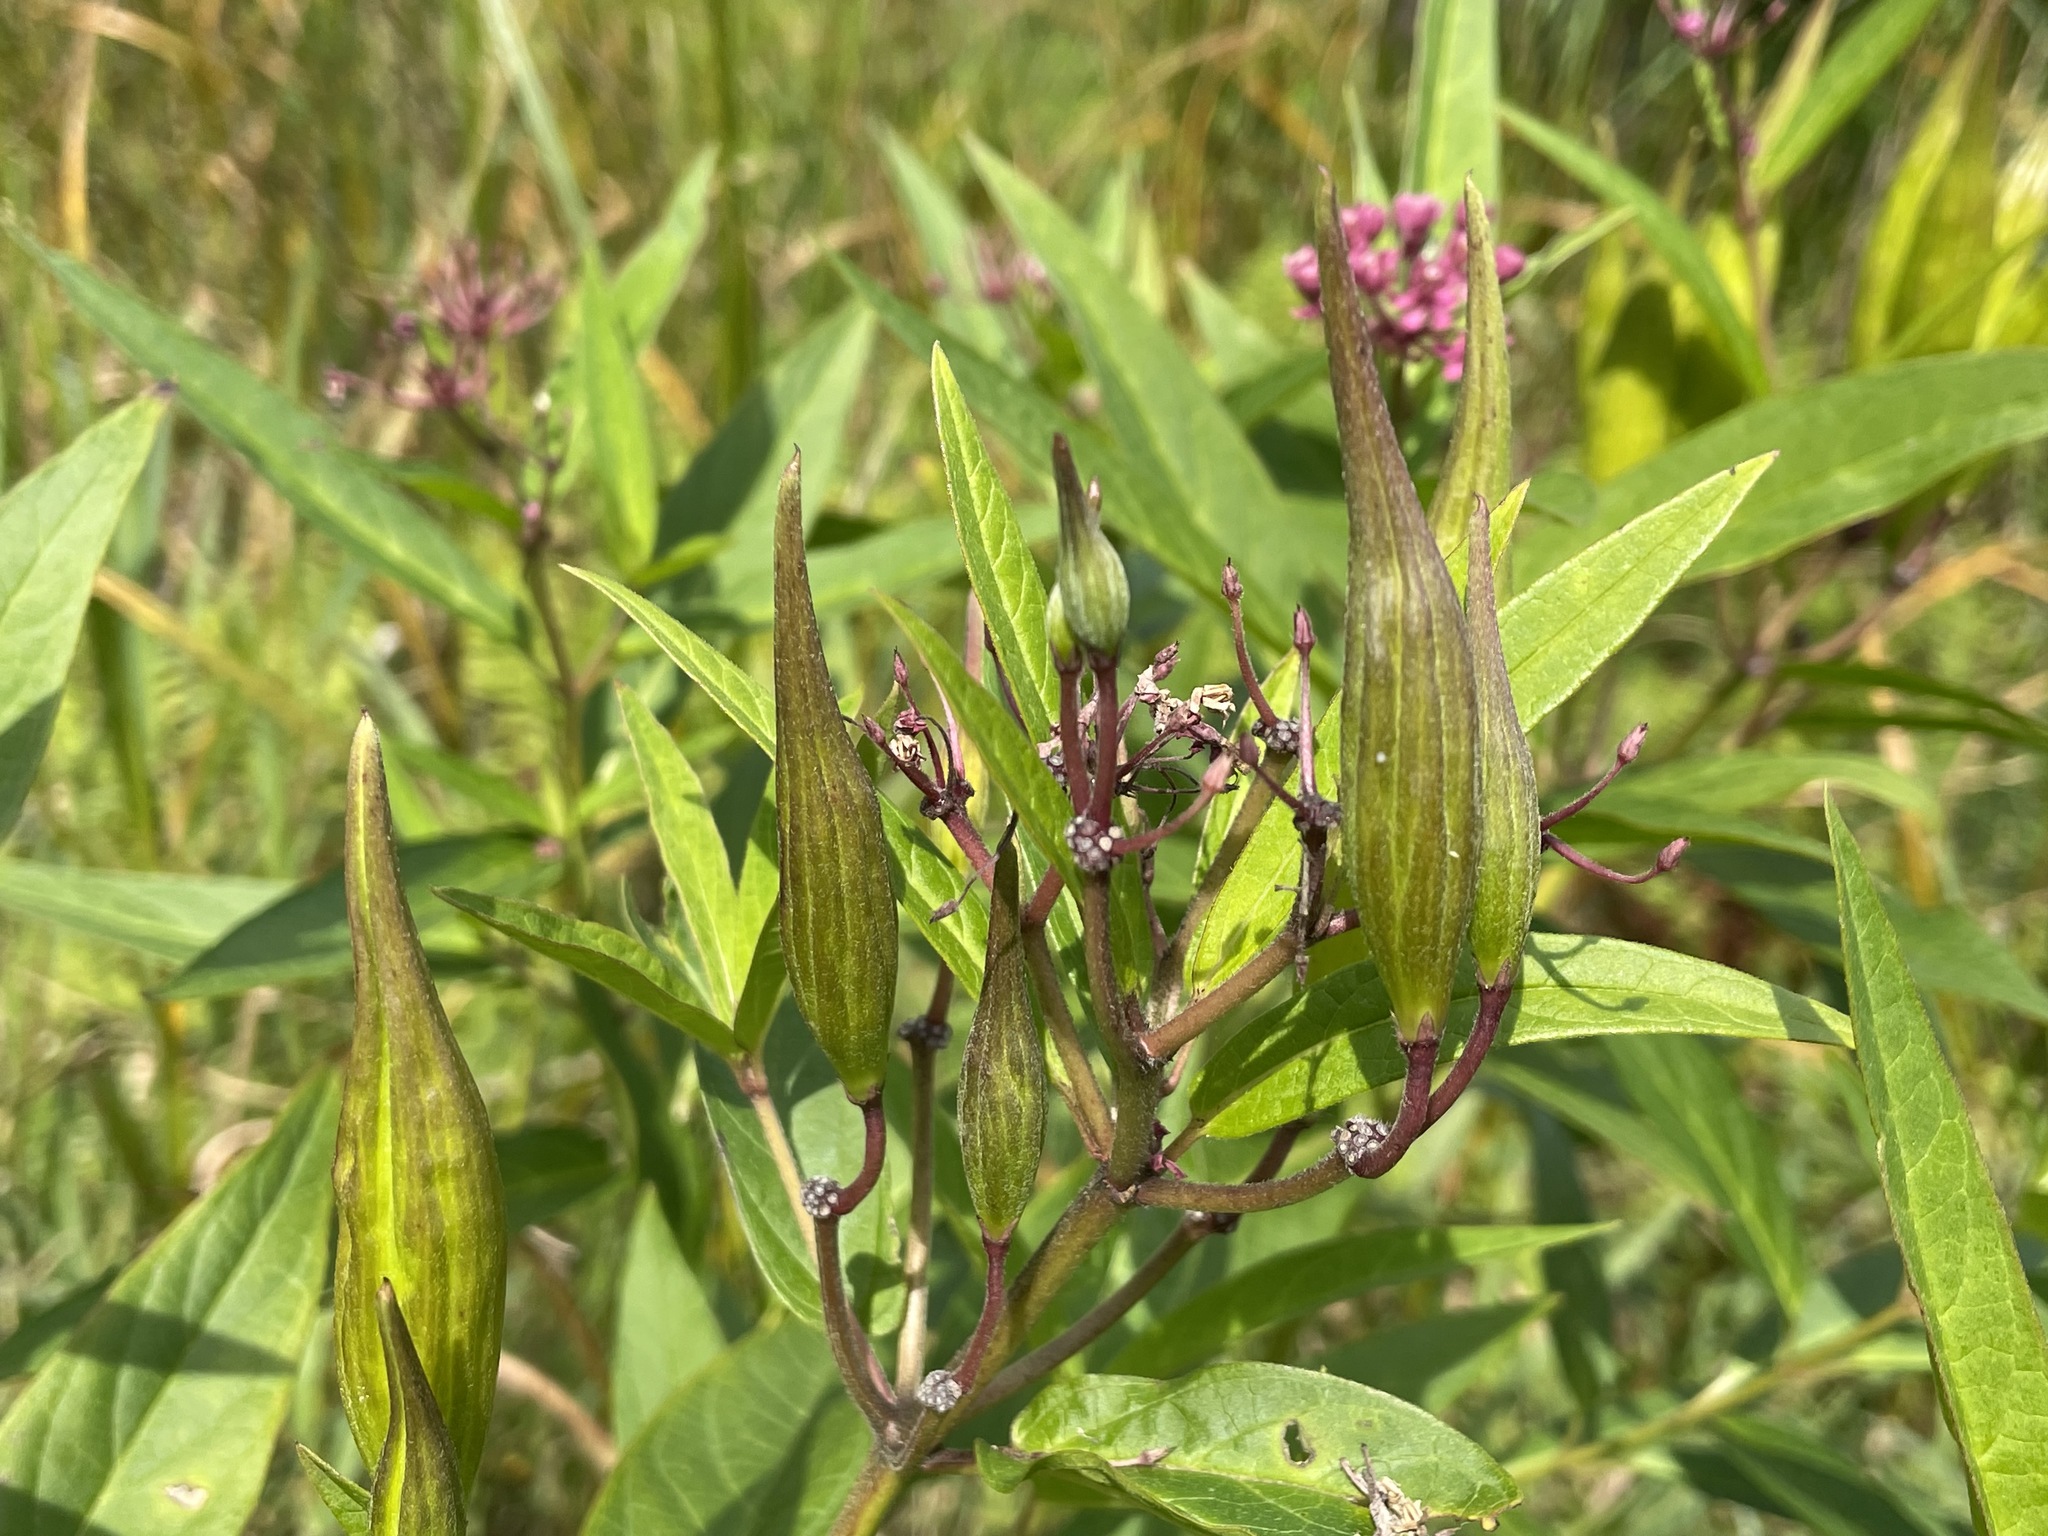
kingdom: Plantae
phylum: Tracheophyta
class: Magnoliopsida
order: Gentianales
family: Apocynaceae
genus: Asclepias
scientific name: Asclepias incarnata
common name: Swamp milkweed
